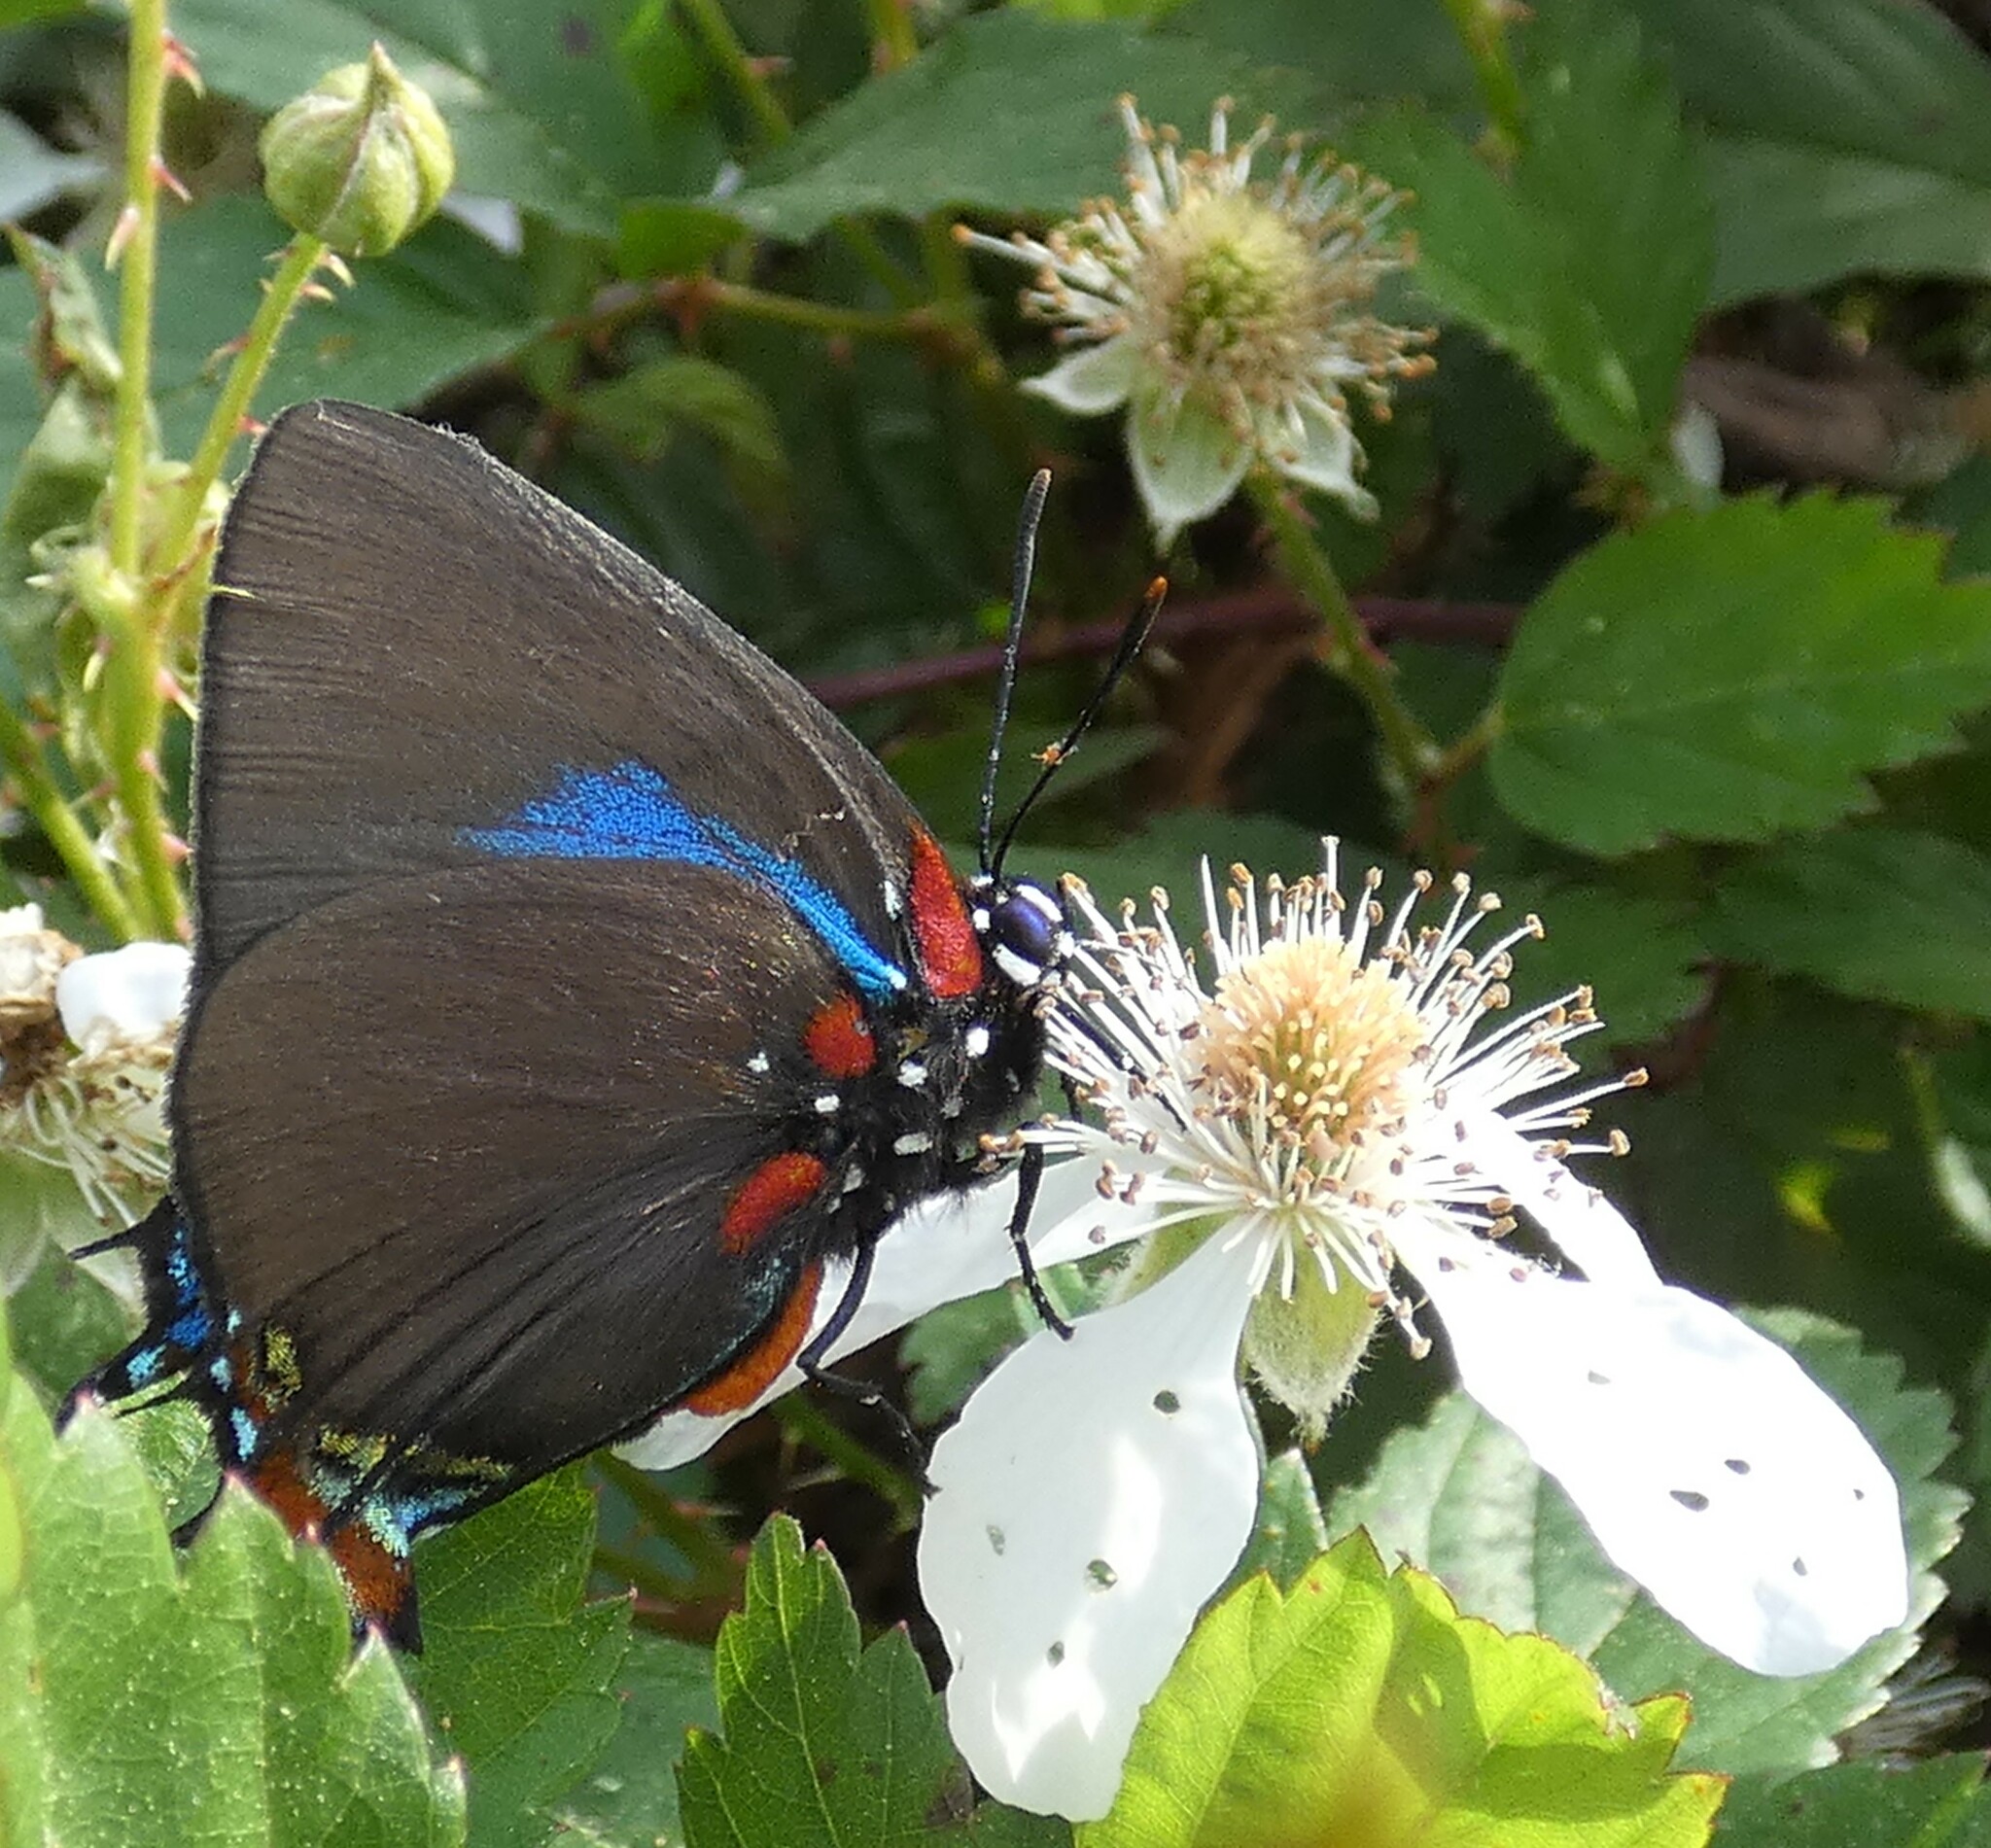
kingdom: Animalia
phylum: Arthropoda
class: Insecta
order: Lepidoptera
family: Lycaenidae
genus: Atlides
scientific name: Atlides halesus
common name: Great purple hairstreak
